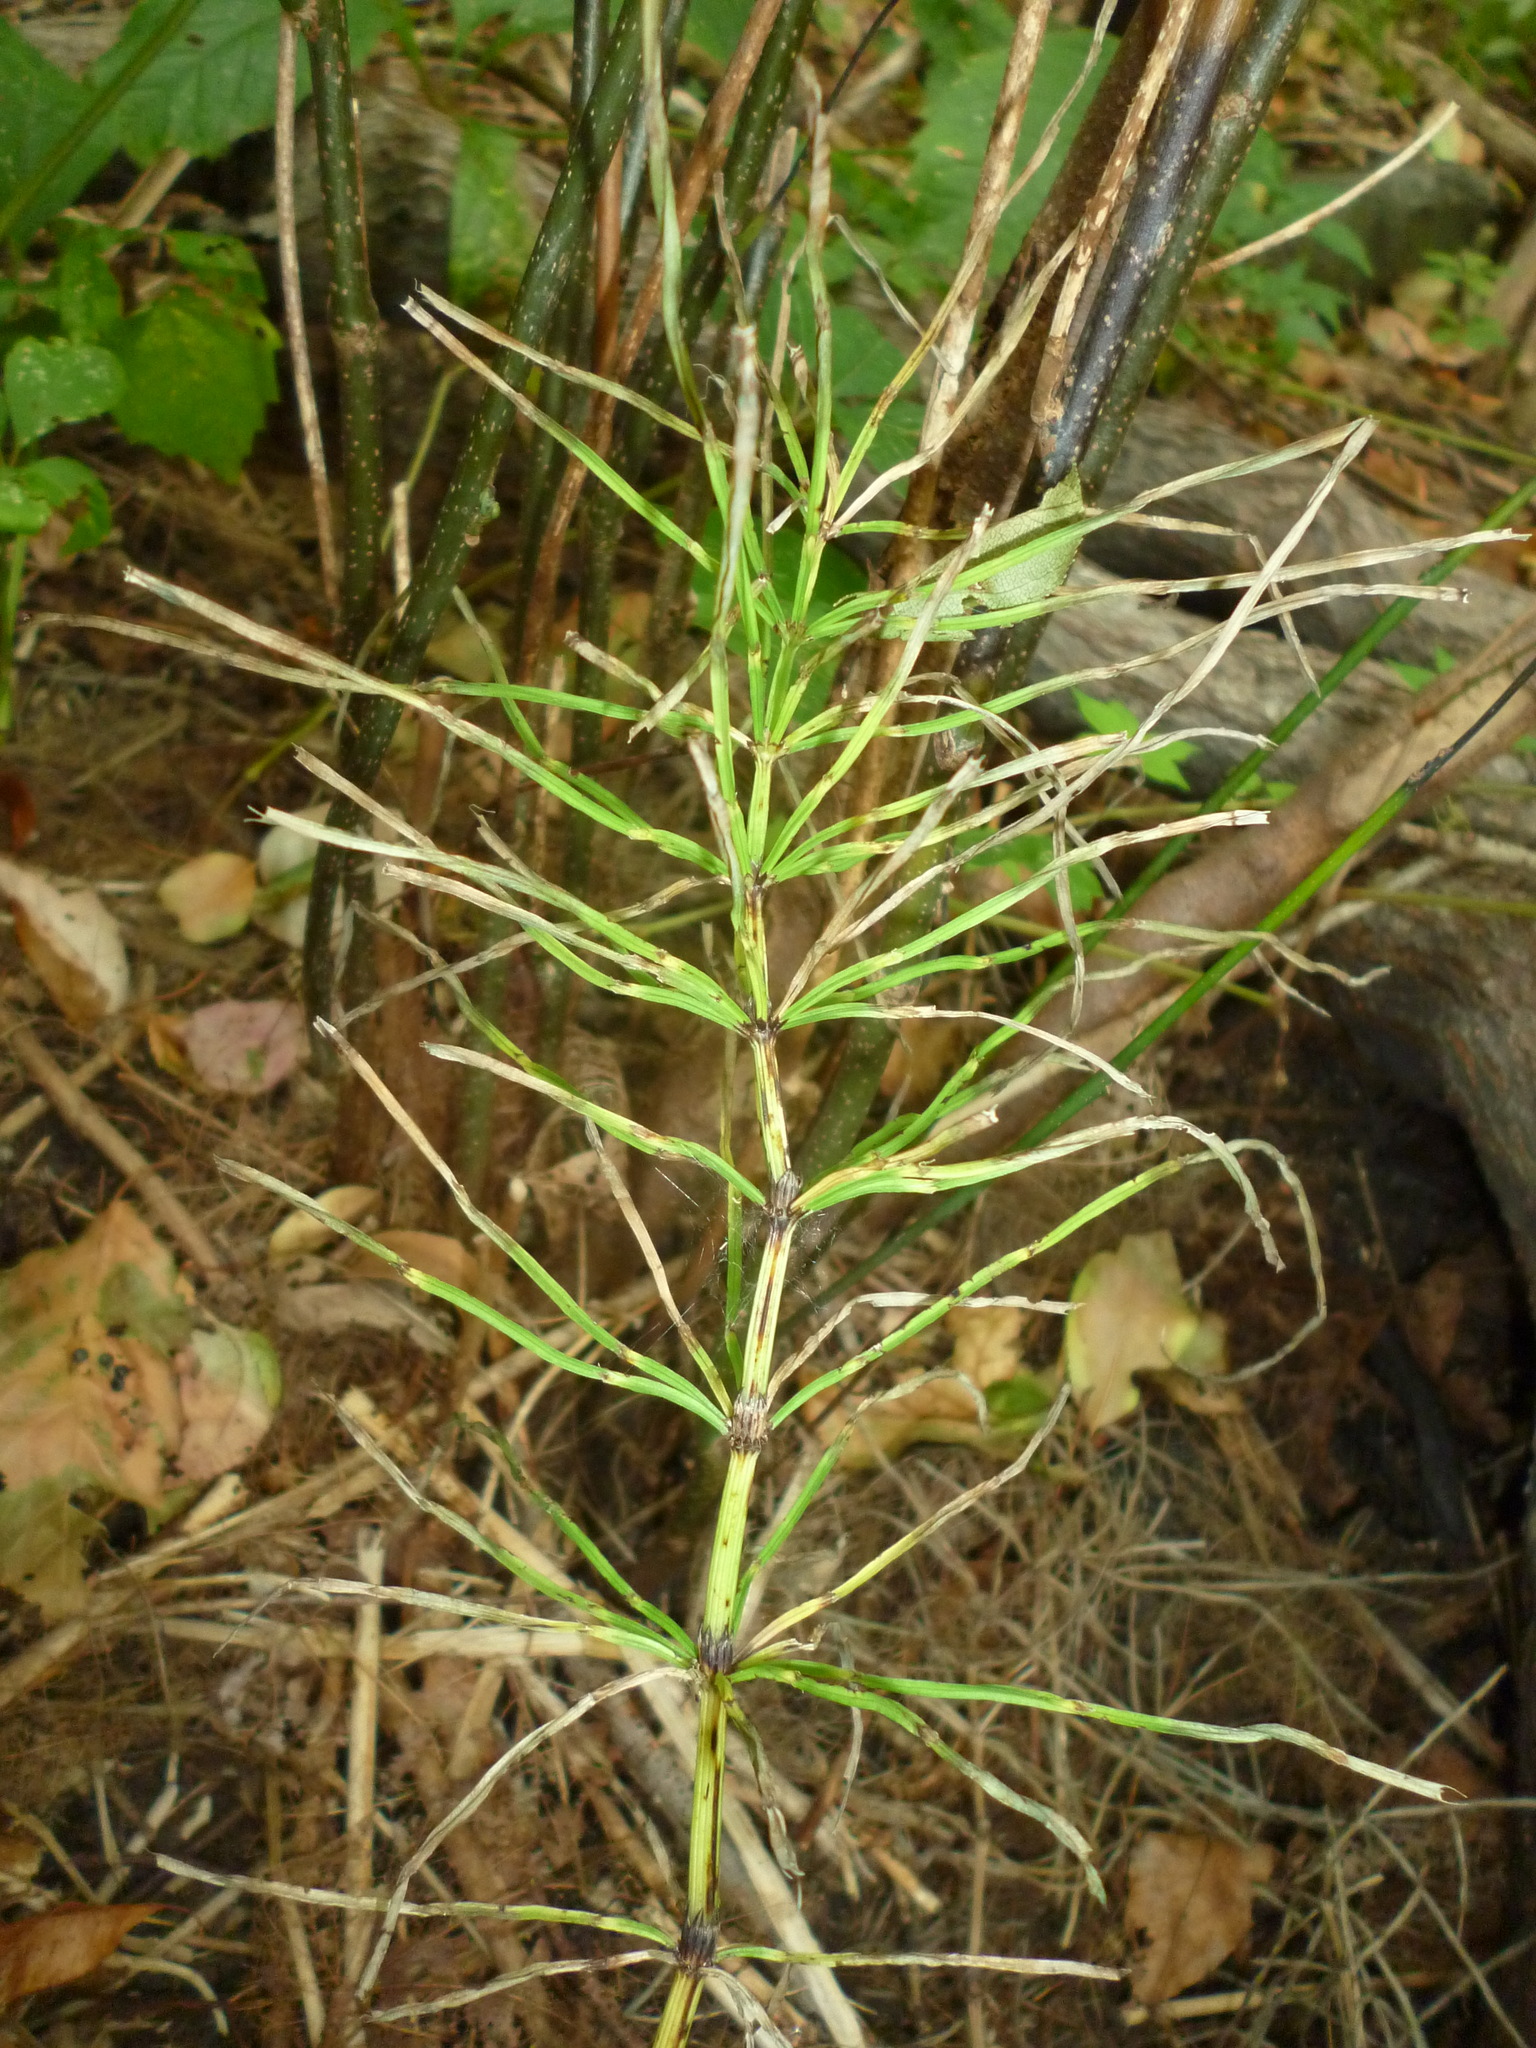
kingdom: Plantae
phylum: Tracheophyta
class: Polypodiopsida
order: Equisetales
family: Equisetaceae
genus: Equisetum
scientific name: Equisetum arvense
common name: Field horsetail
